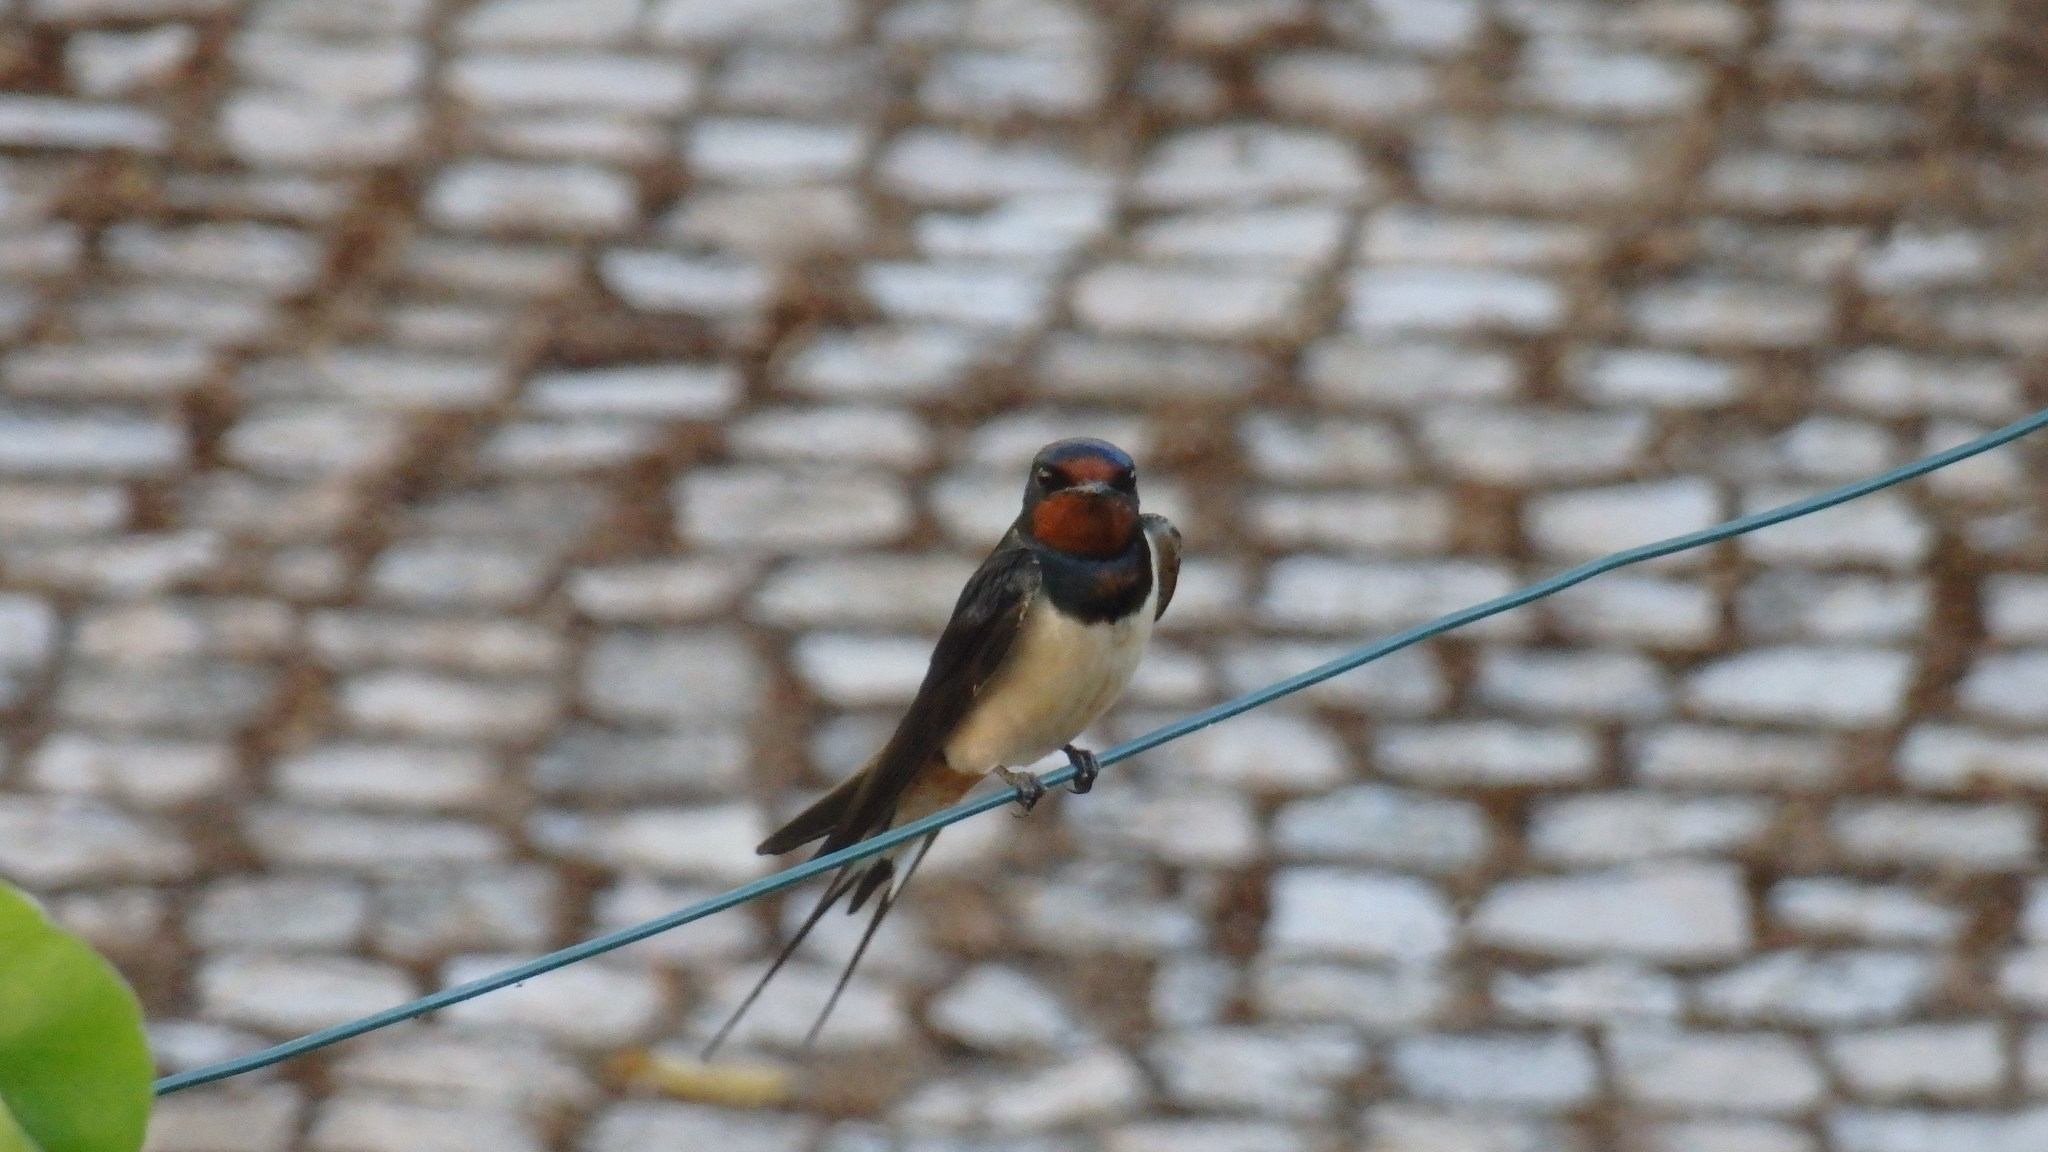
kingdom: Animalia
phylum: Chordata
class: Aves
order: Passeriformes
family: Hirundinidae
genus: Hirundo
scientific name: Hirundo rustica
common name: Barn swallow
